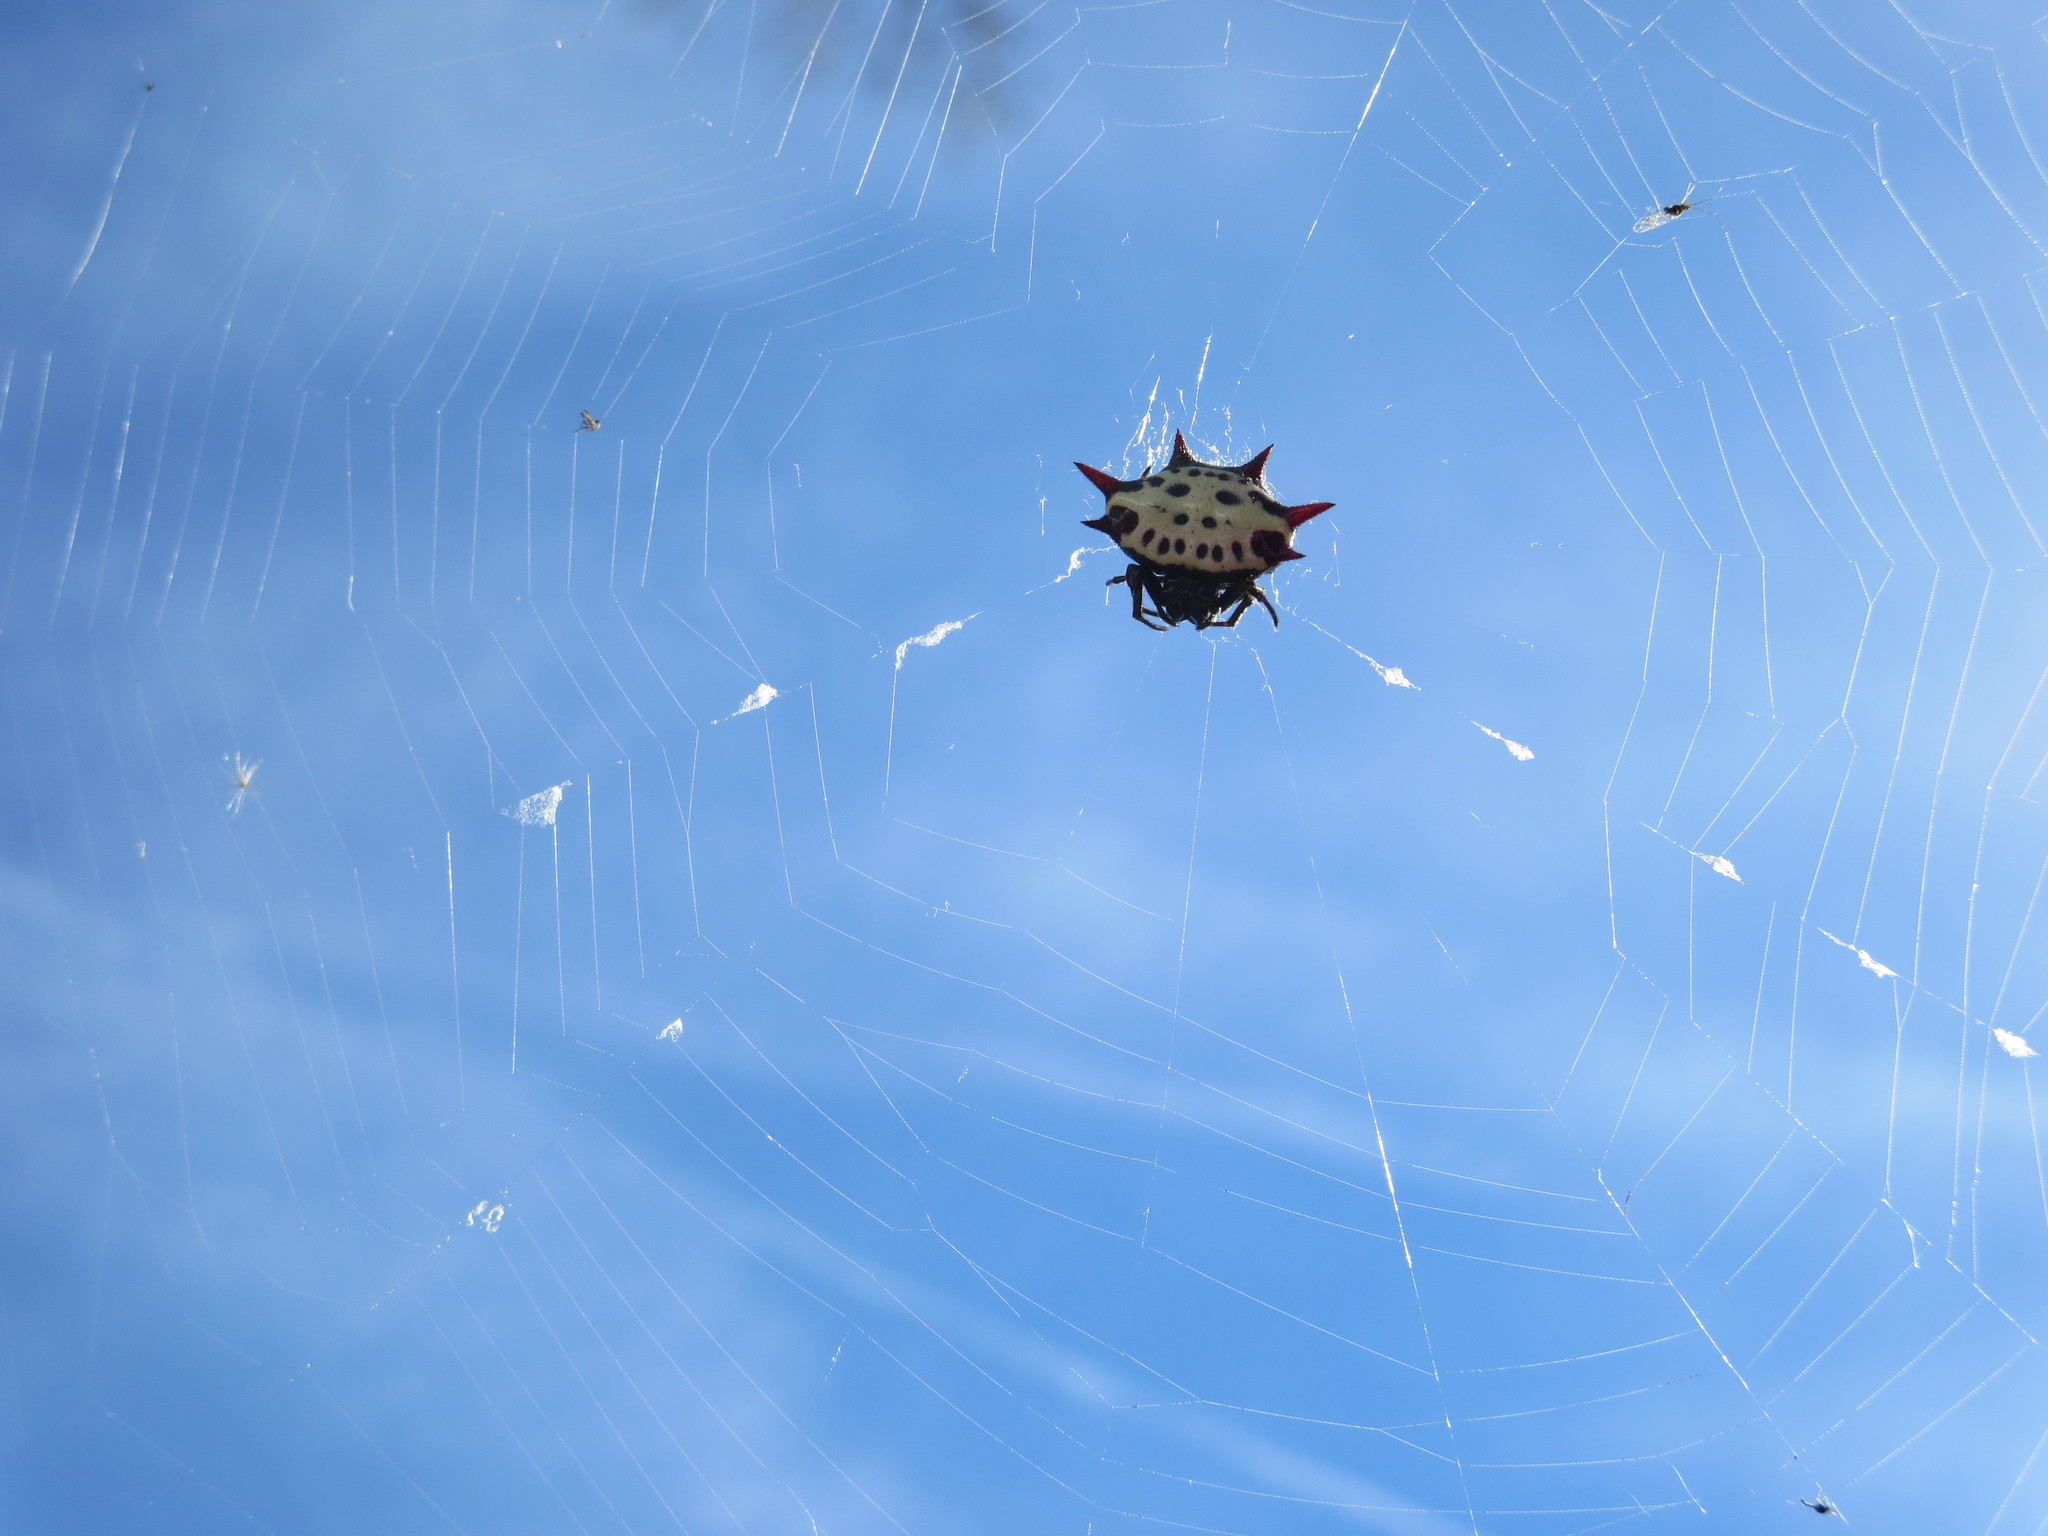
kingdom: Animalia
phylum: Arthropoda
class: Arachnida
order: Araneae
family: Araneidae
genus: Gasteracantha
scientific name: Gasteracantha cancriformis
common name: Orb weavers
